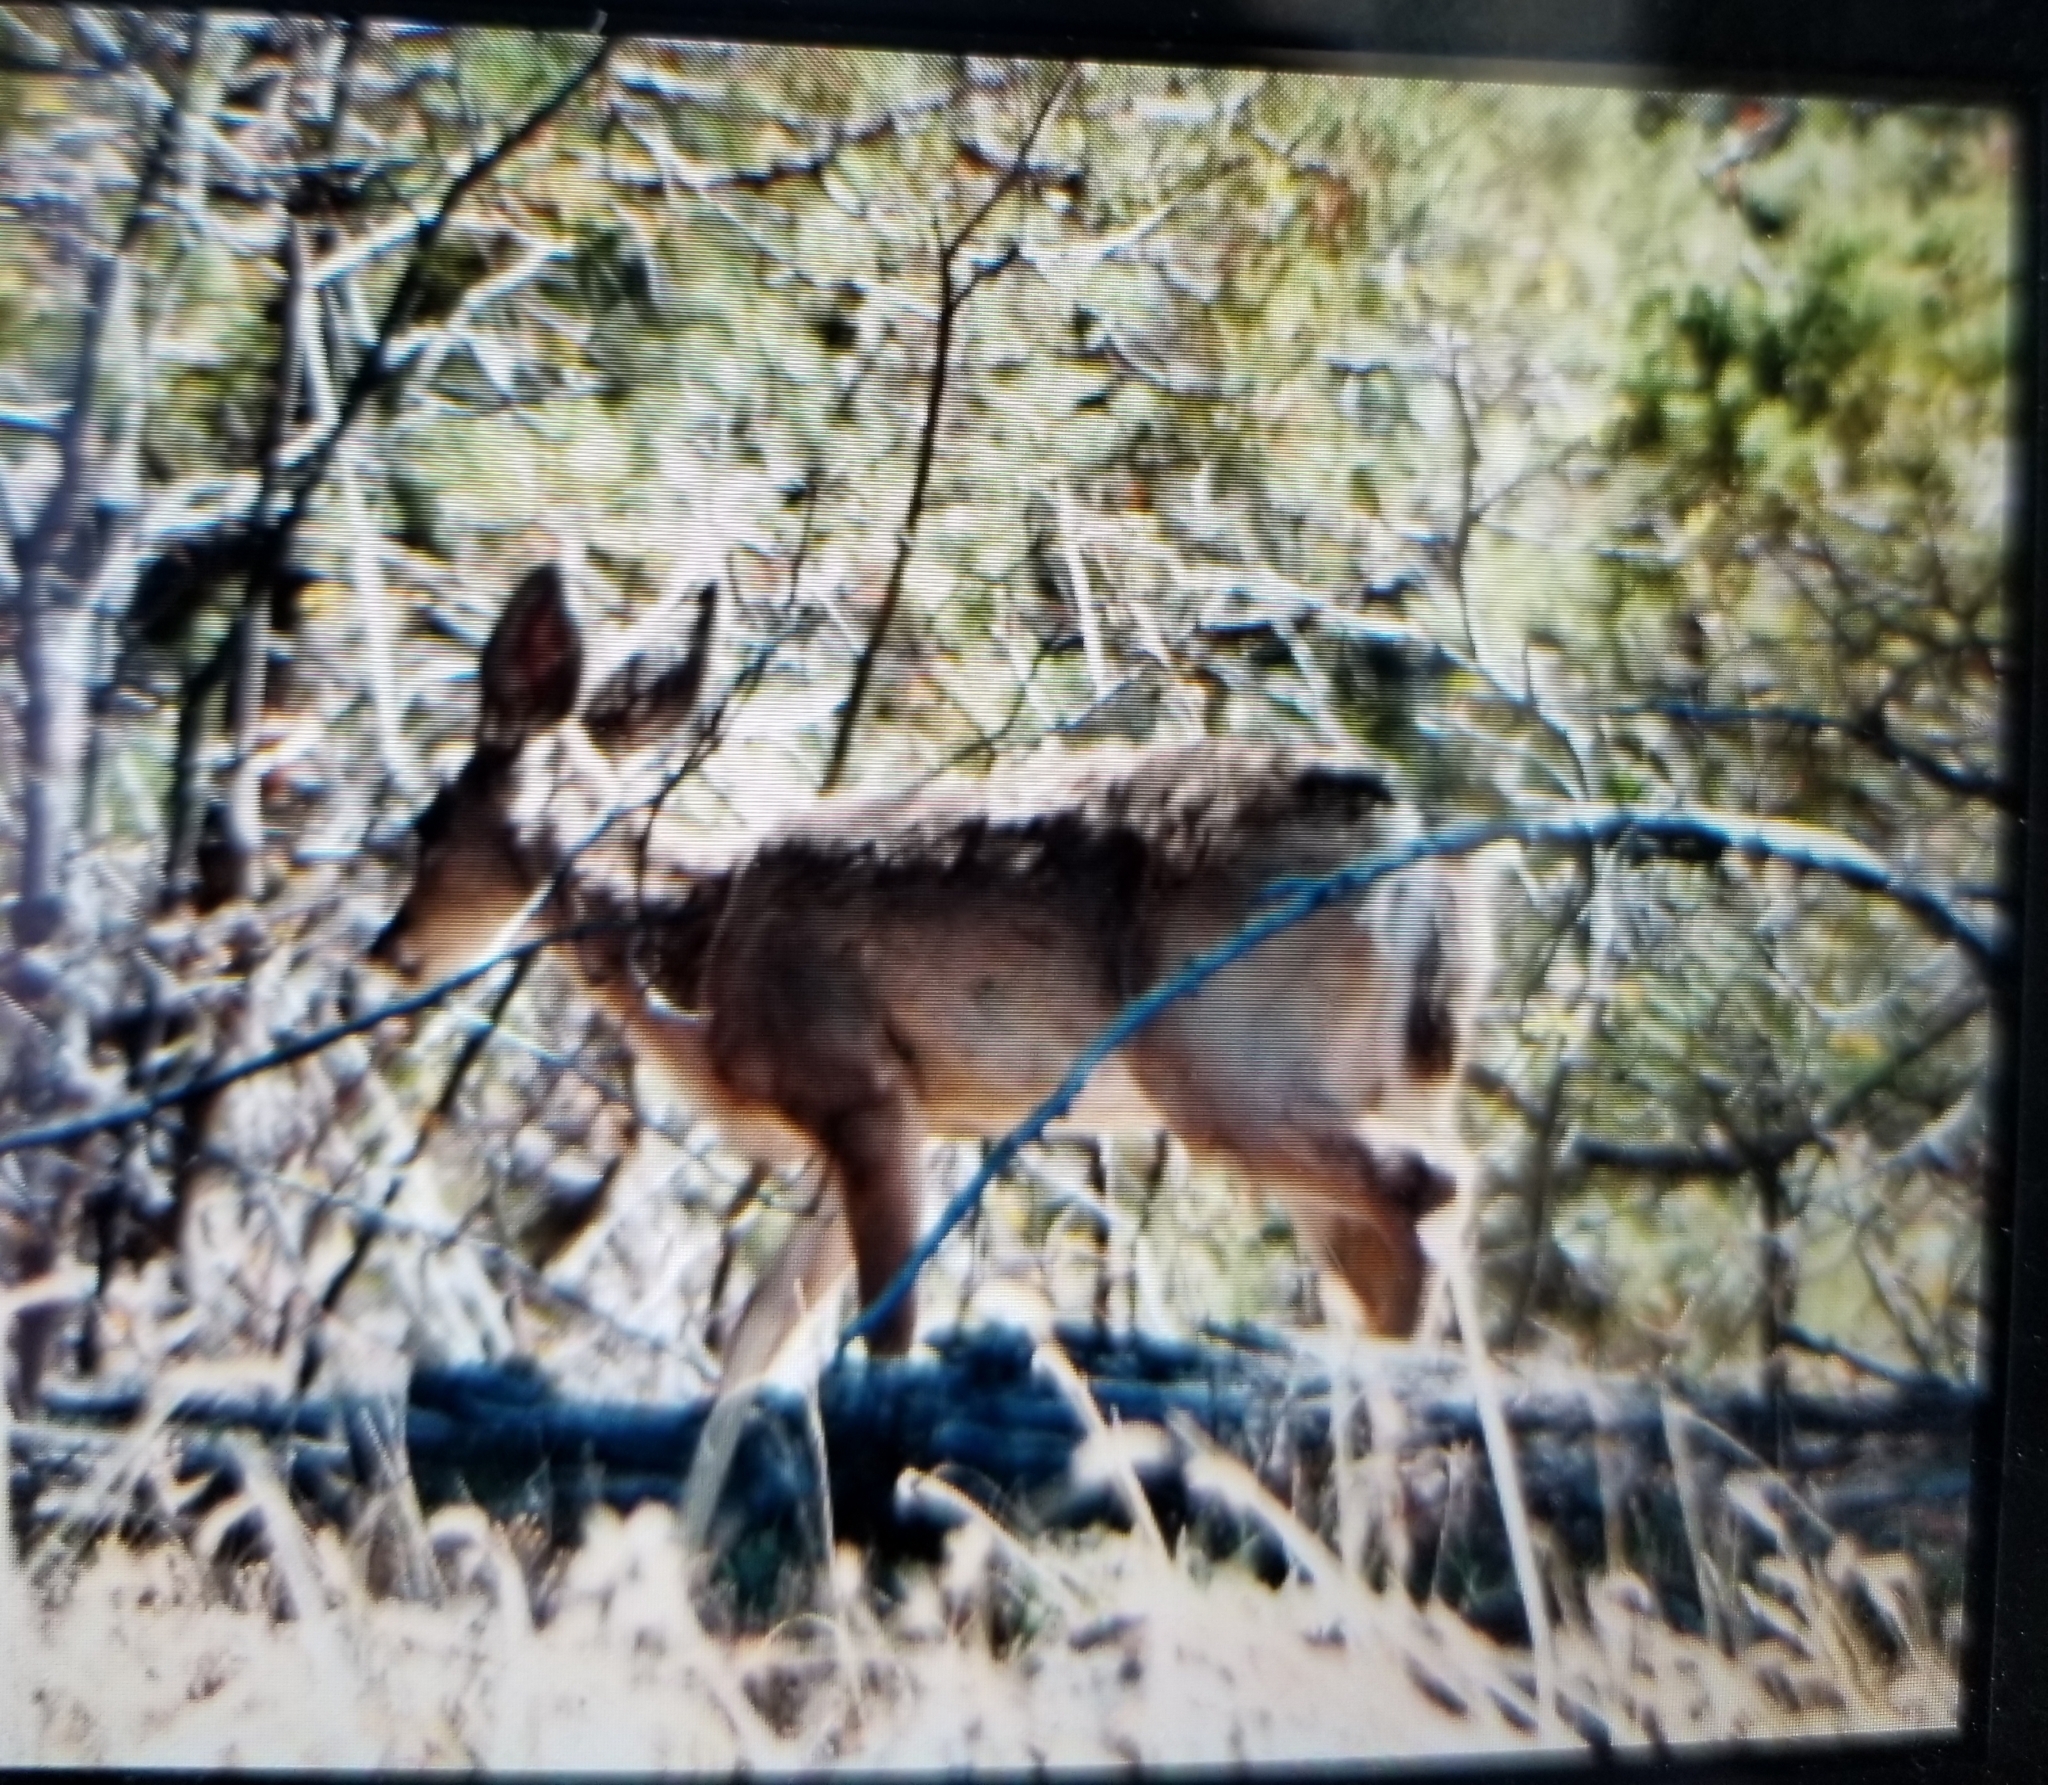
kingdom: Animalia
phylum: Chordata
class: Mammalia
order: Artiodactyla
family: Cervidae
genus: Odocoileus
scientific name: Odocoileus virginianus
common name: White-tailed deer
